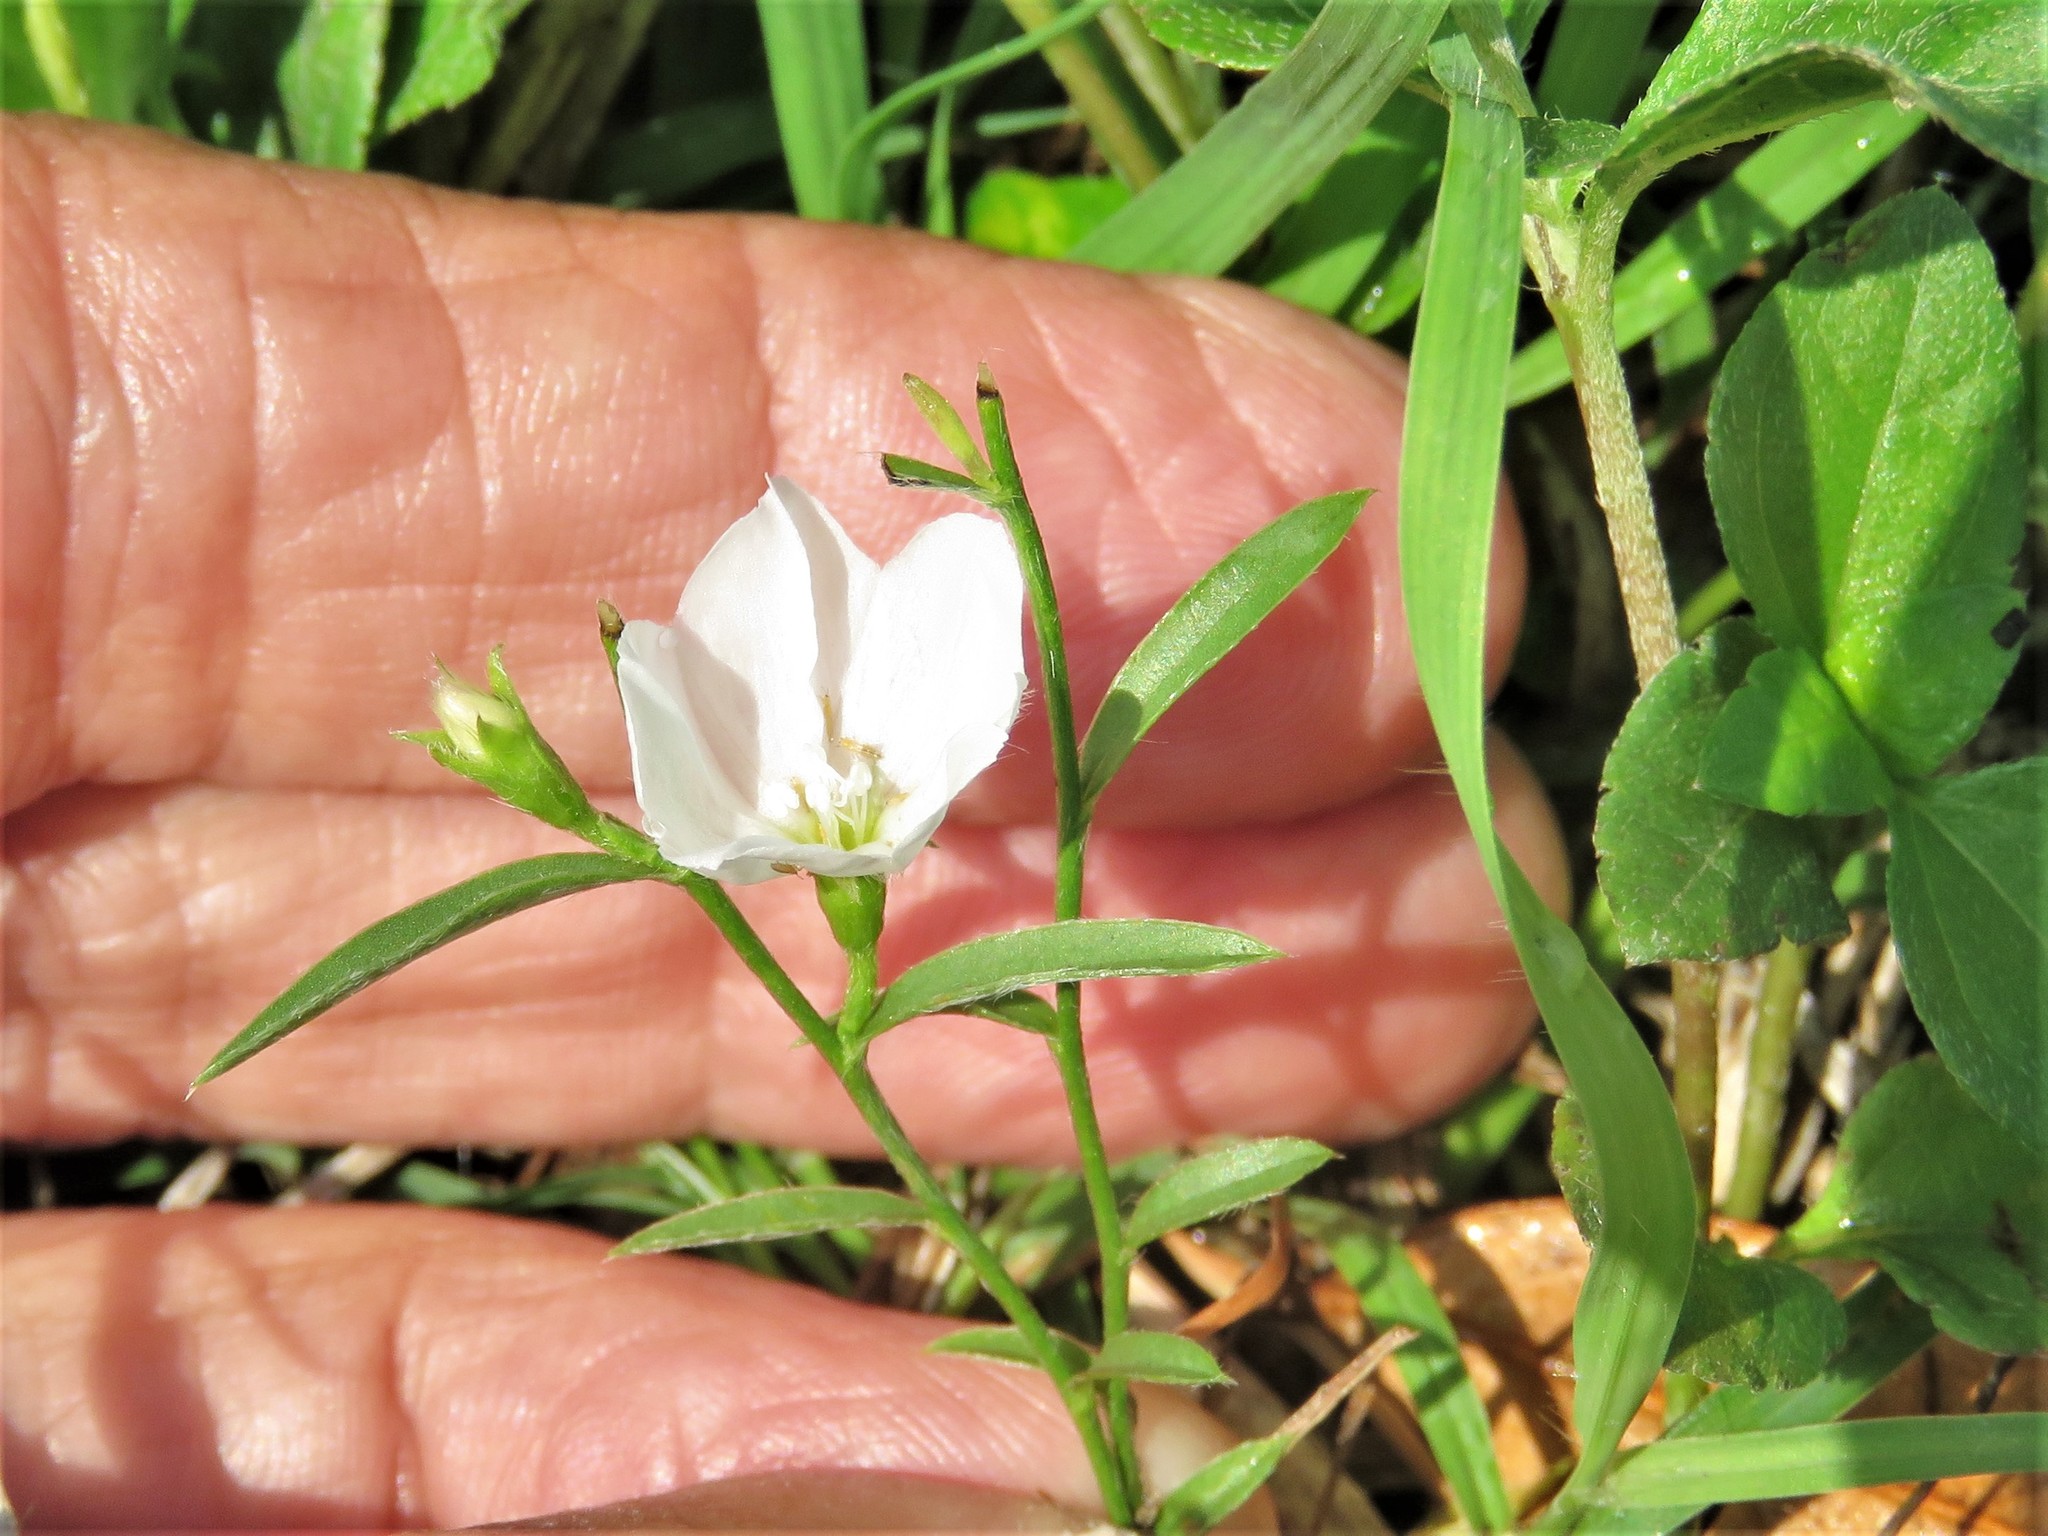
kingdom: Plantae
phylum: Tracheophyta
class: Magnoliopsida
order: Solanales
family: Convolvulaceae
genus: Evolvulus
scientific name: Evolvulus sericeus
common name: Blue dots
